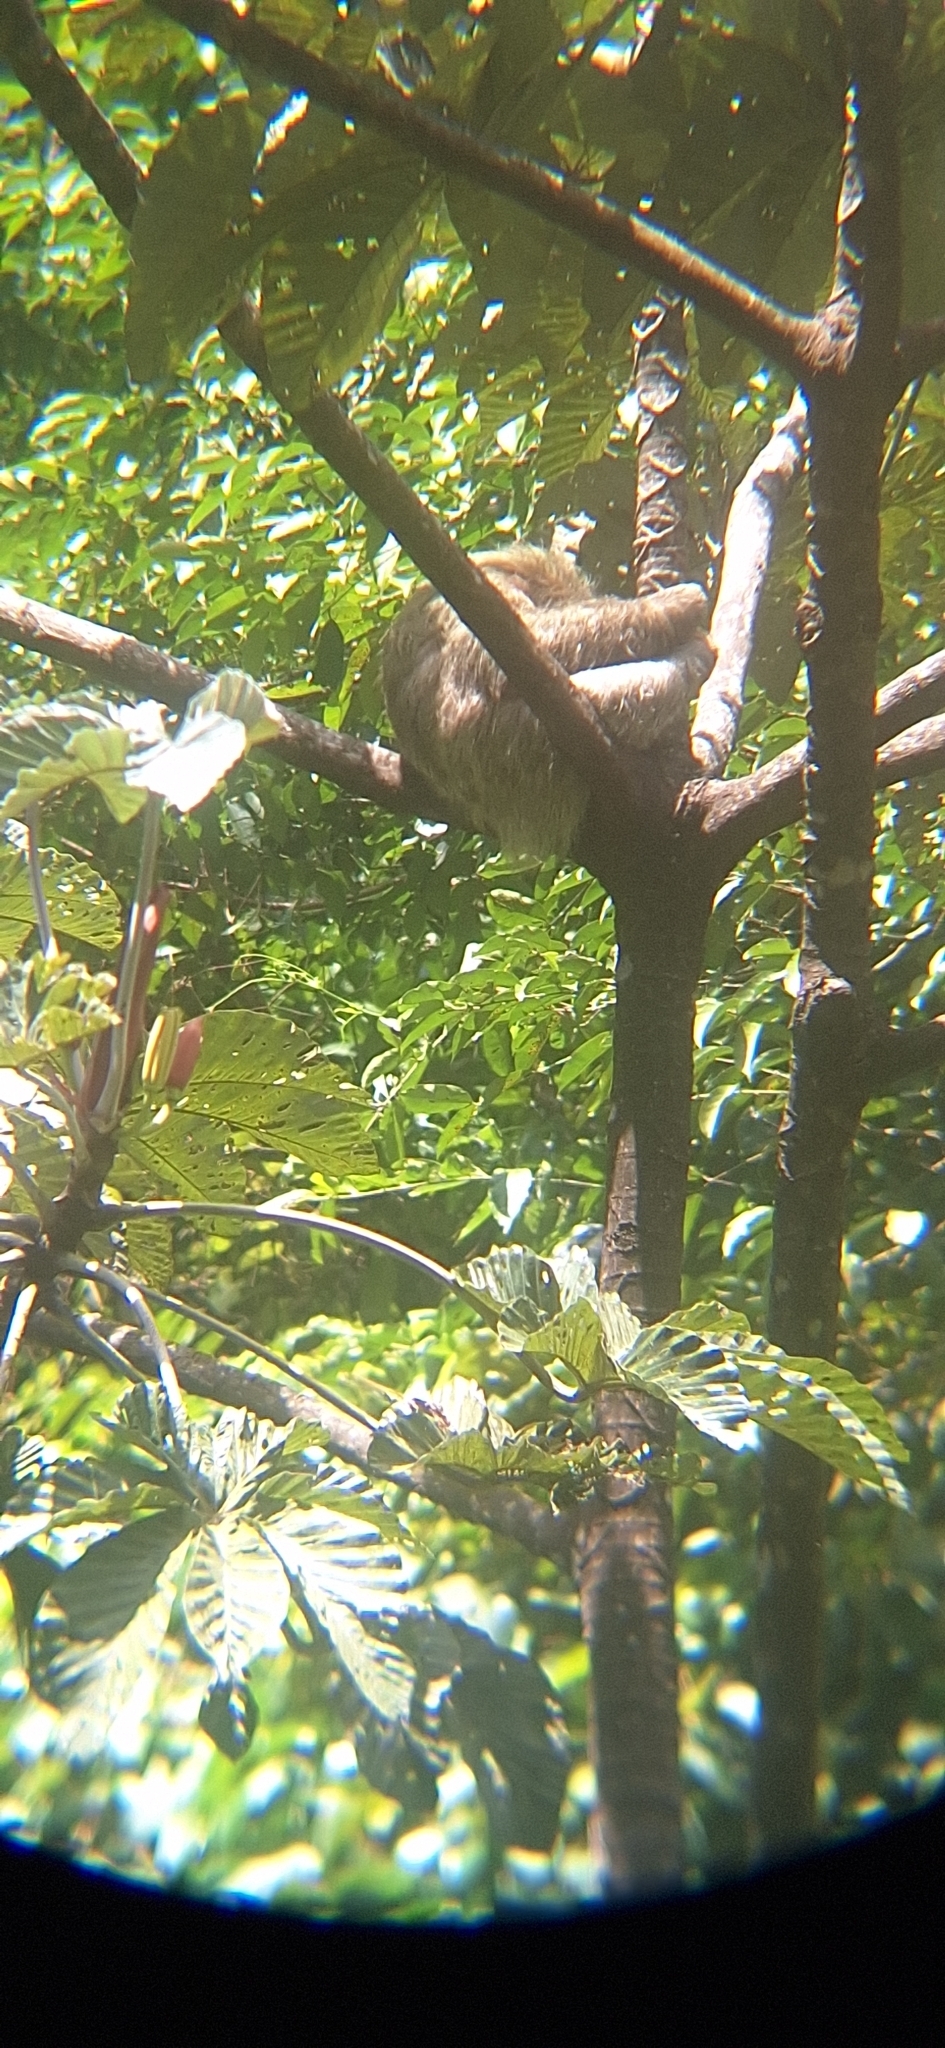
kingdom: Animalia
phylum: Chordata
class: Mammalia
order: Pilosa
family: Bradypodidae
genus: Bradypus
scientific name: Bradypus variegatus
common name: Brown-throated three-toed sloth
